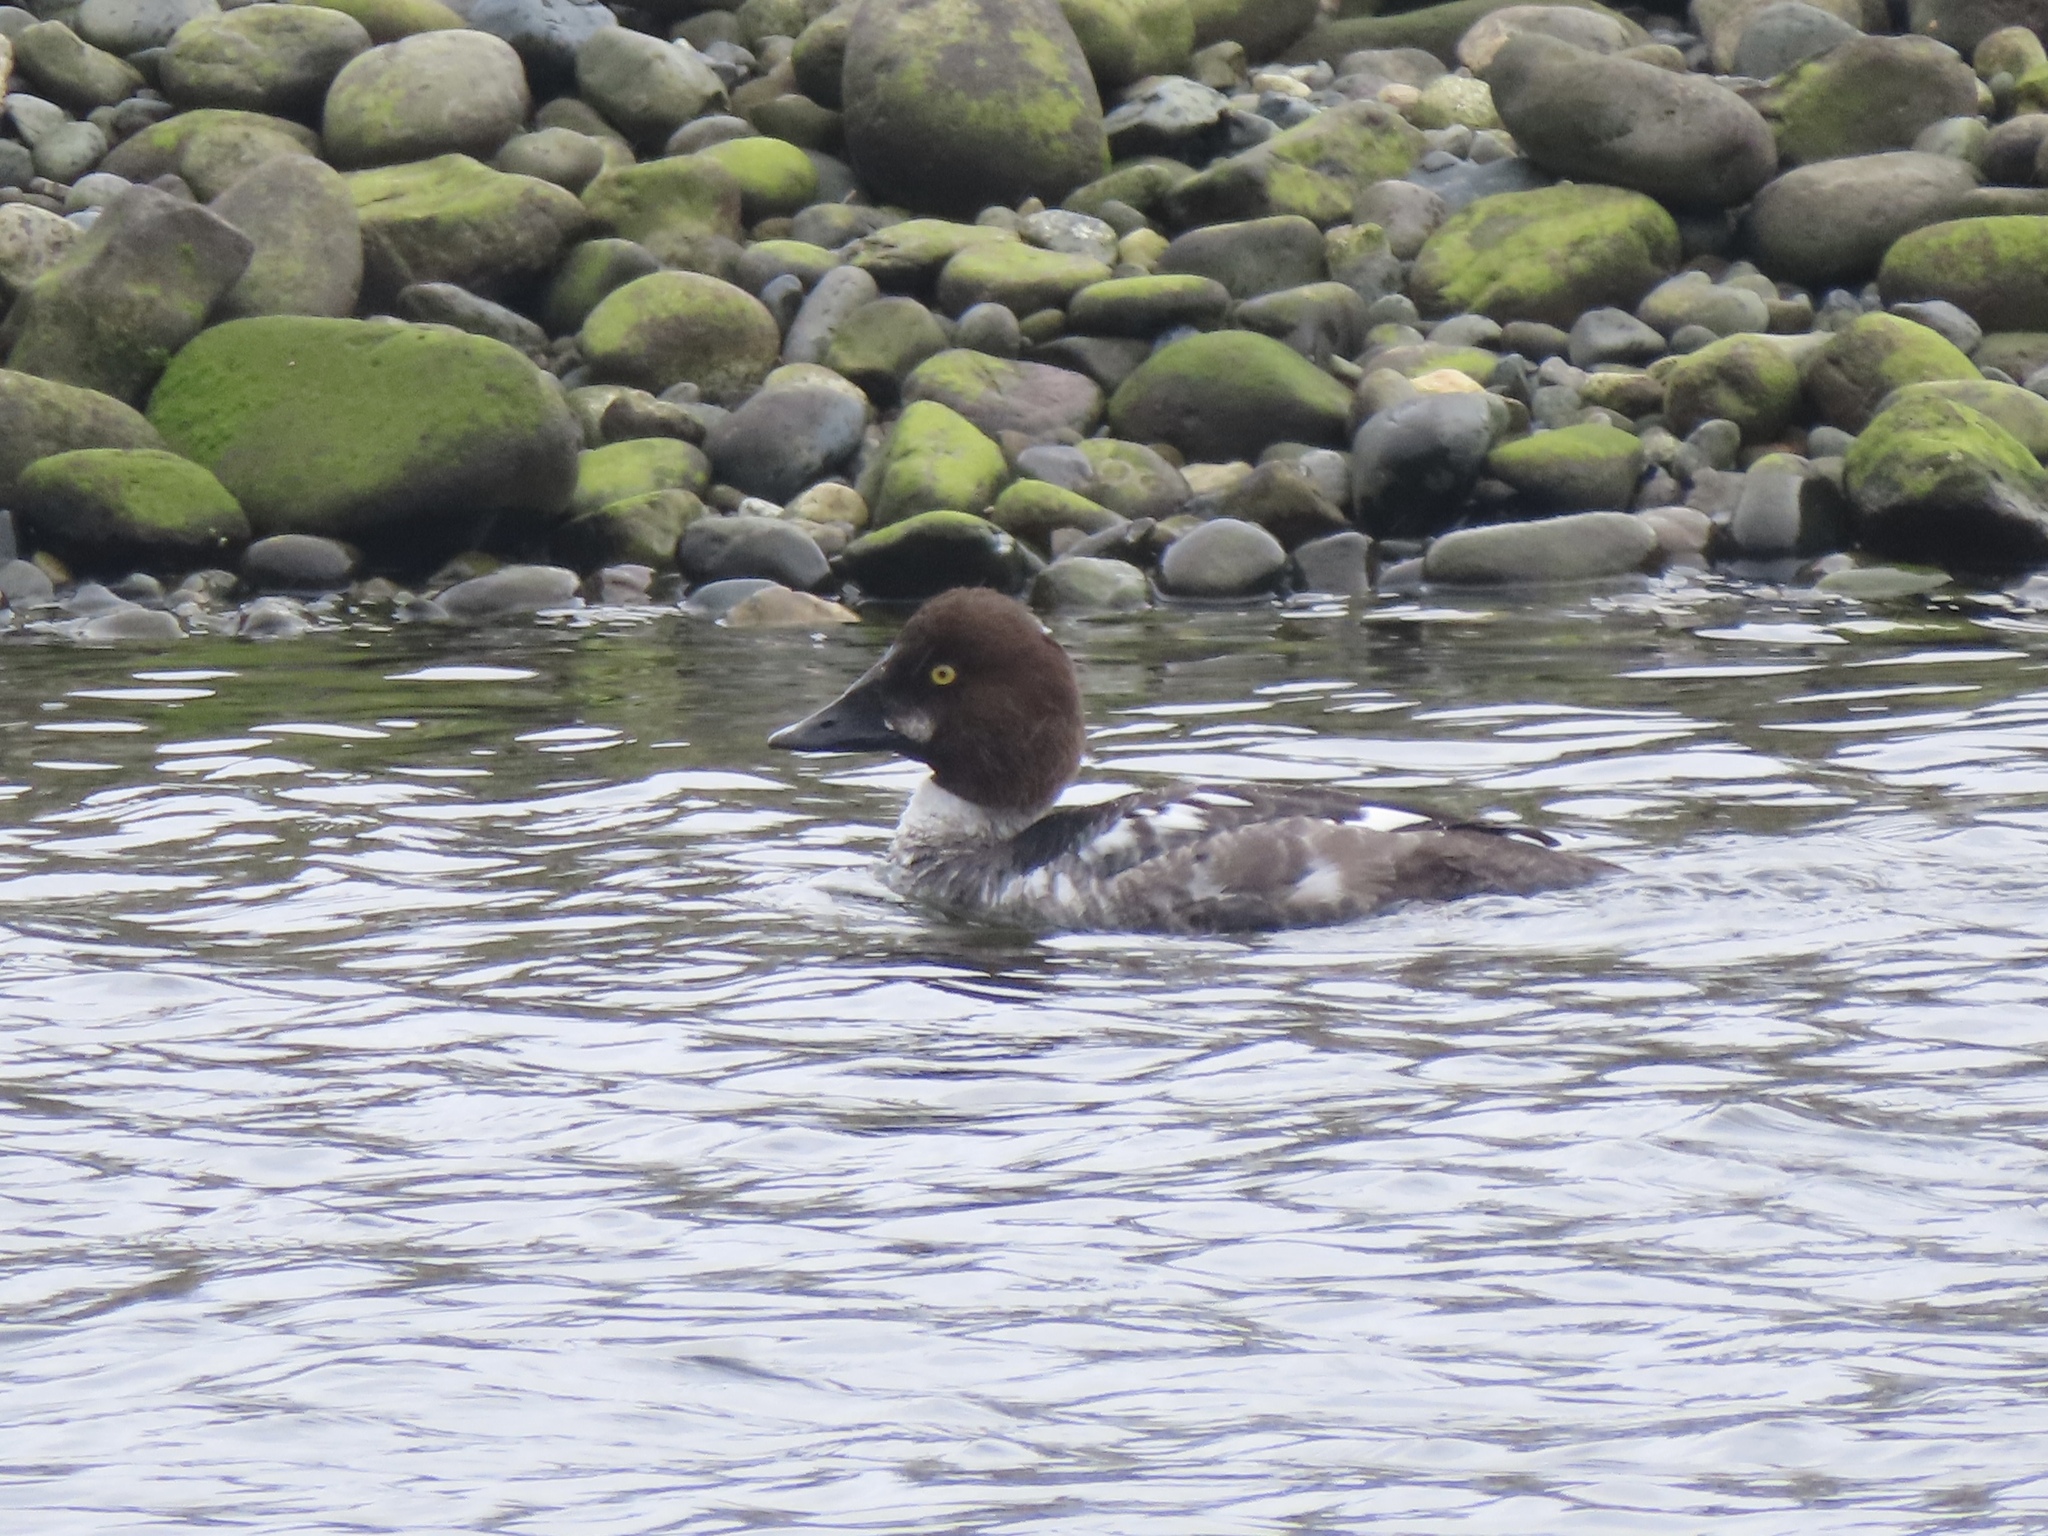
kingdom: Animalia
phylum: Chordata
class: Aves
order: Anseriformes
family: Anatidae
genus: Bucephala
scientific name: Bucephala clangula
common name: Common goldeneye
